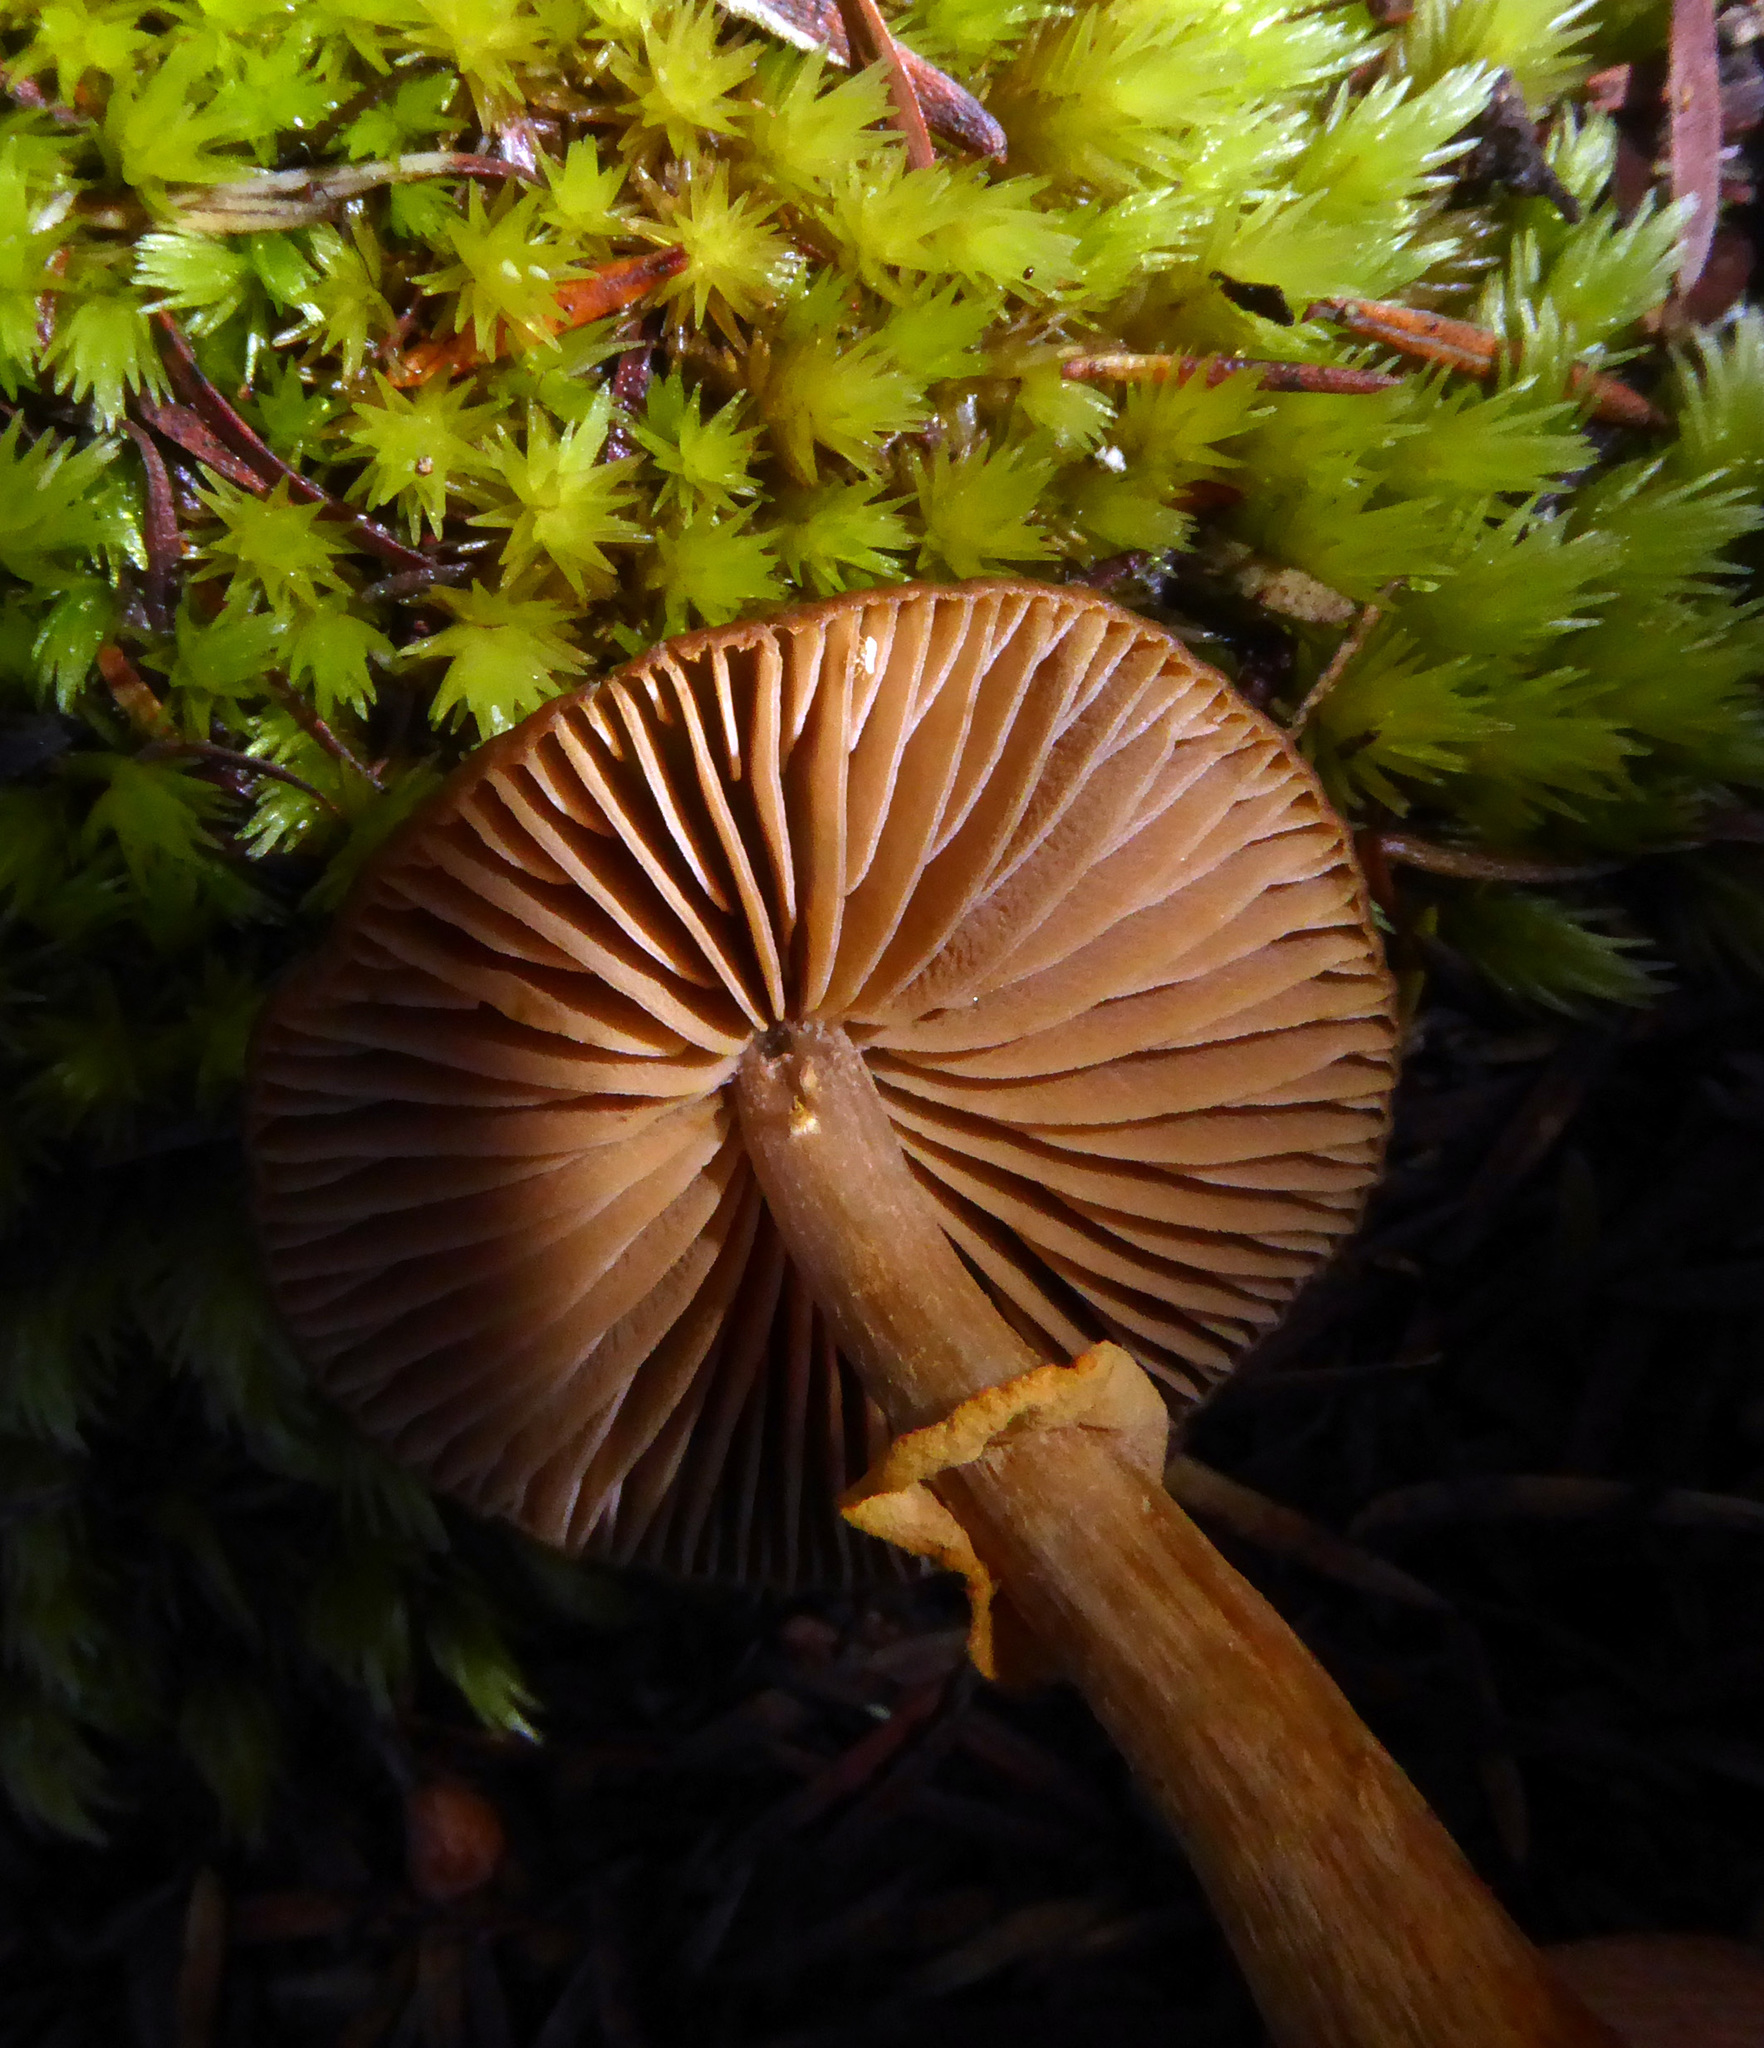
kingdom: Fungi
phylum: Basidiomycota
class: Agaricomycetes
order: Agaricales
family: Bolbitiaceae
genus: Descolea
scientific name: Descolea gunnii
